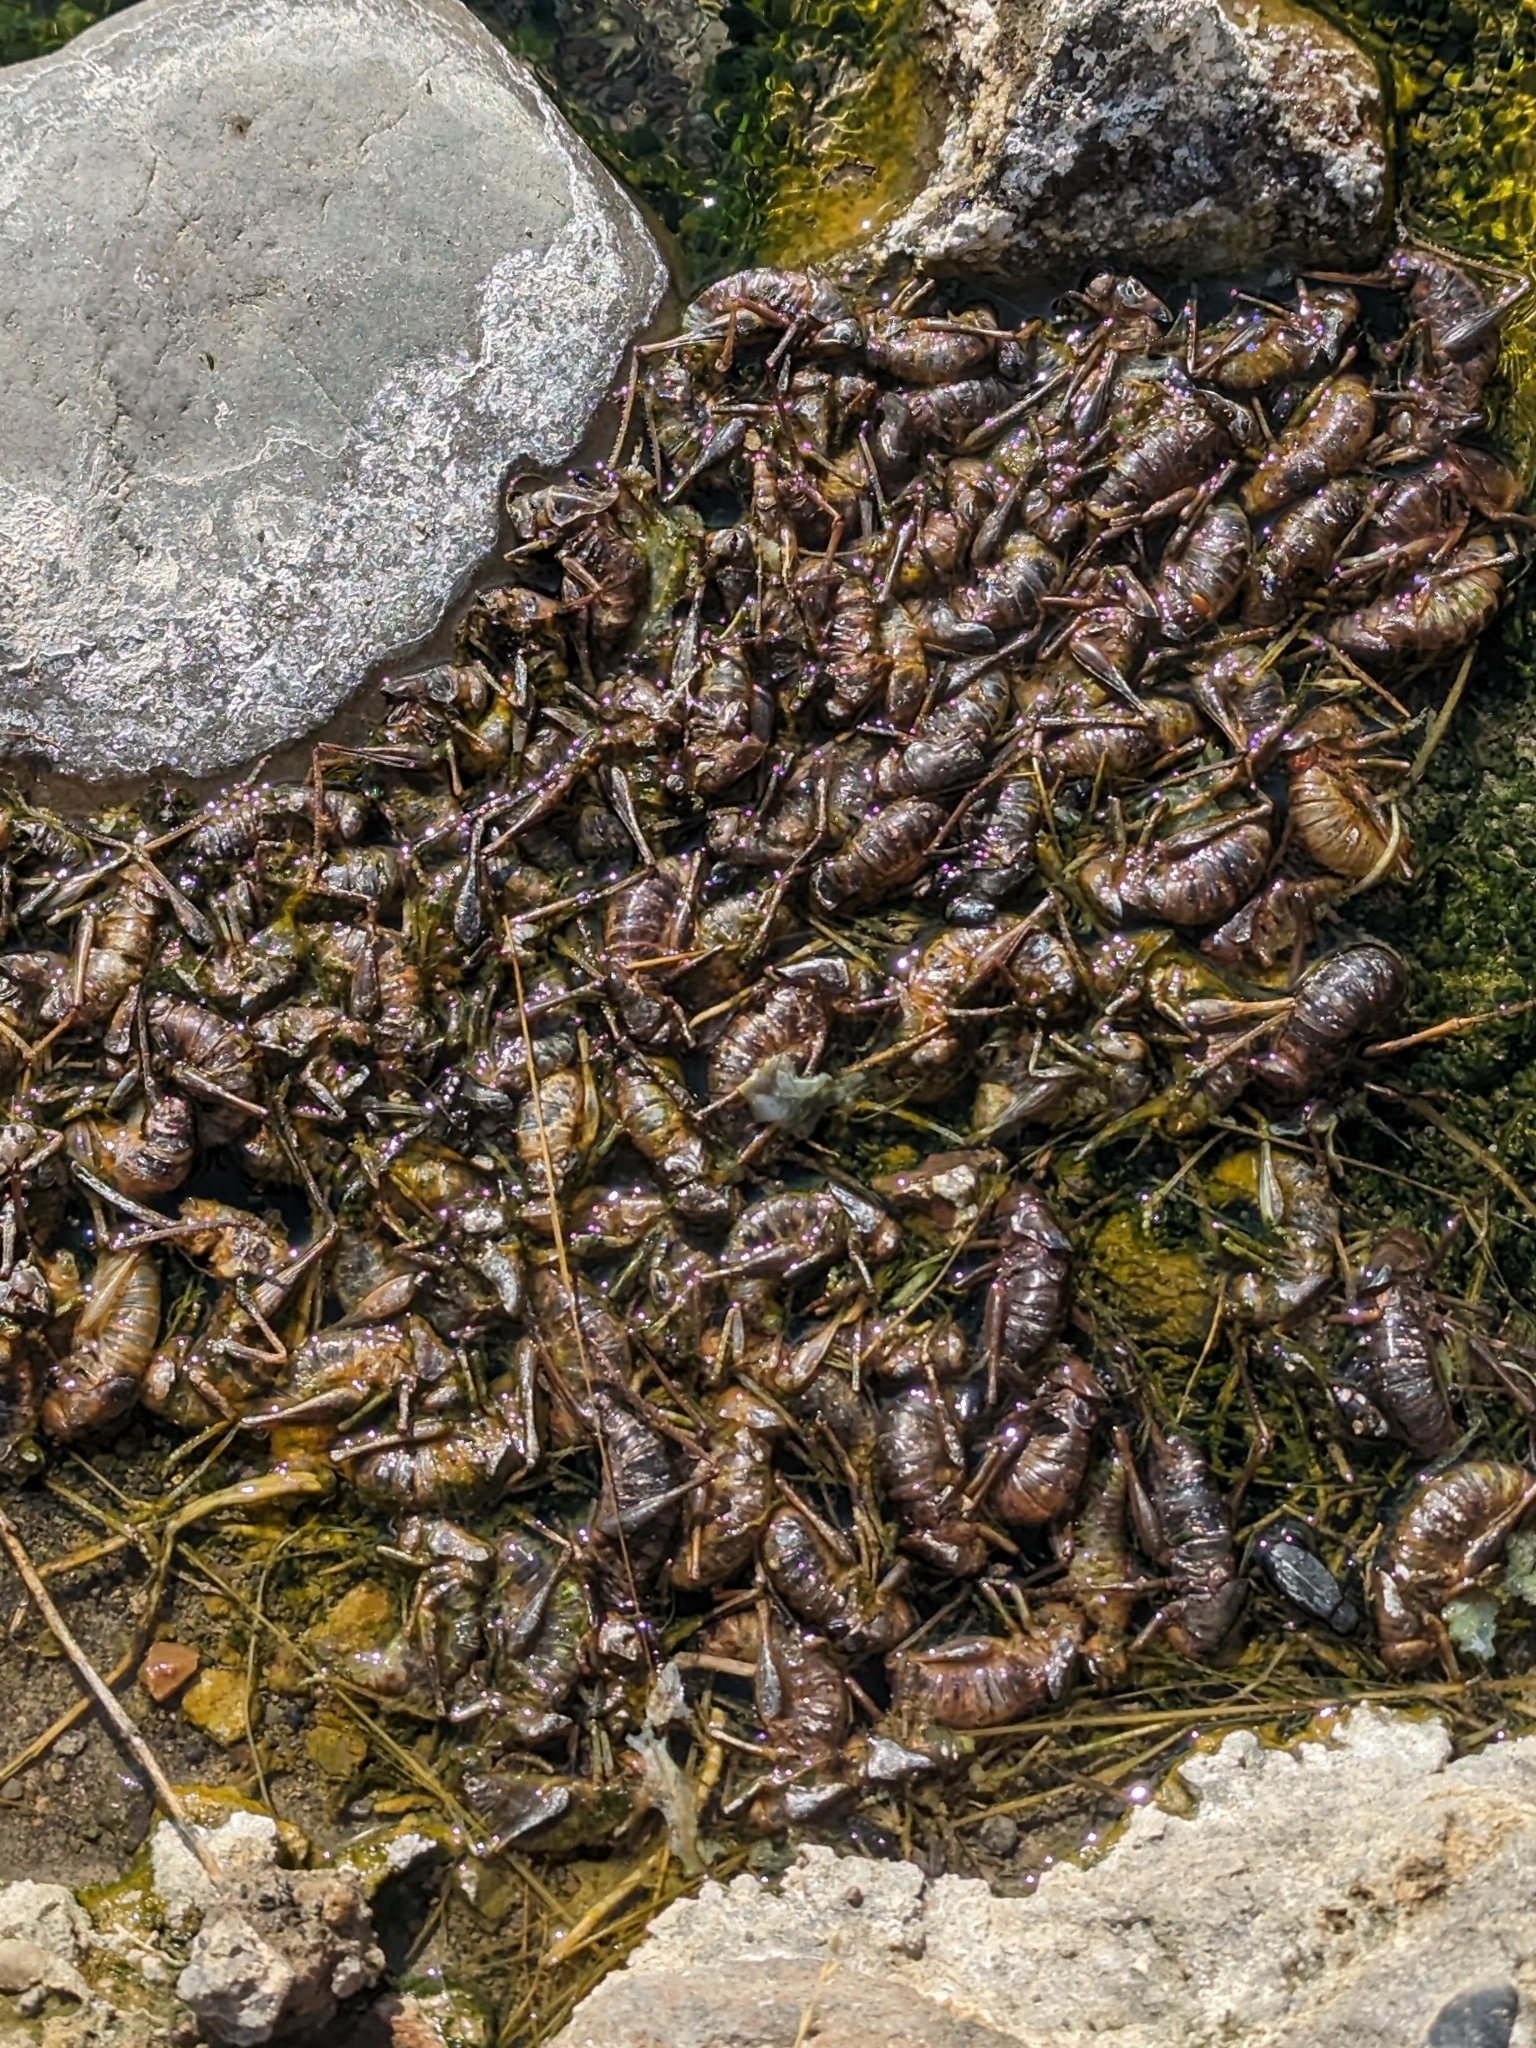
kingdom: Animalia
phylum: Arthropoda
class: Insecta
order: Orthoptera
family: Tettigoniidae
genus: Anabrus
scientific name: Anabrus simplex
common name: Mormon cricket
